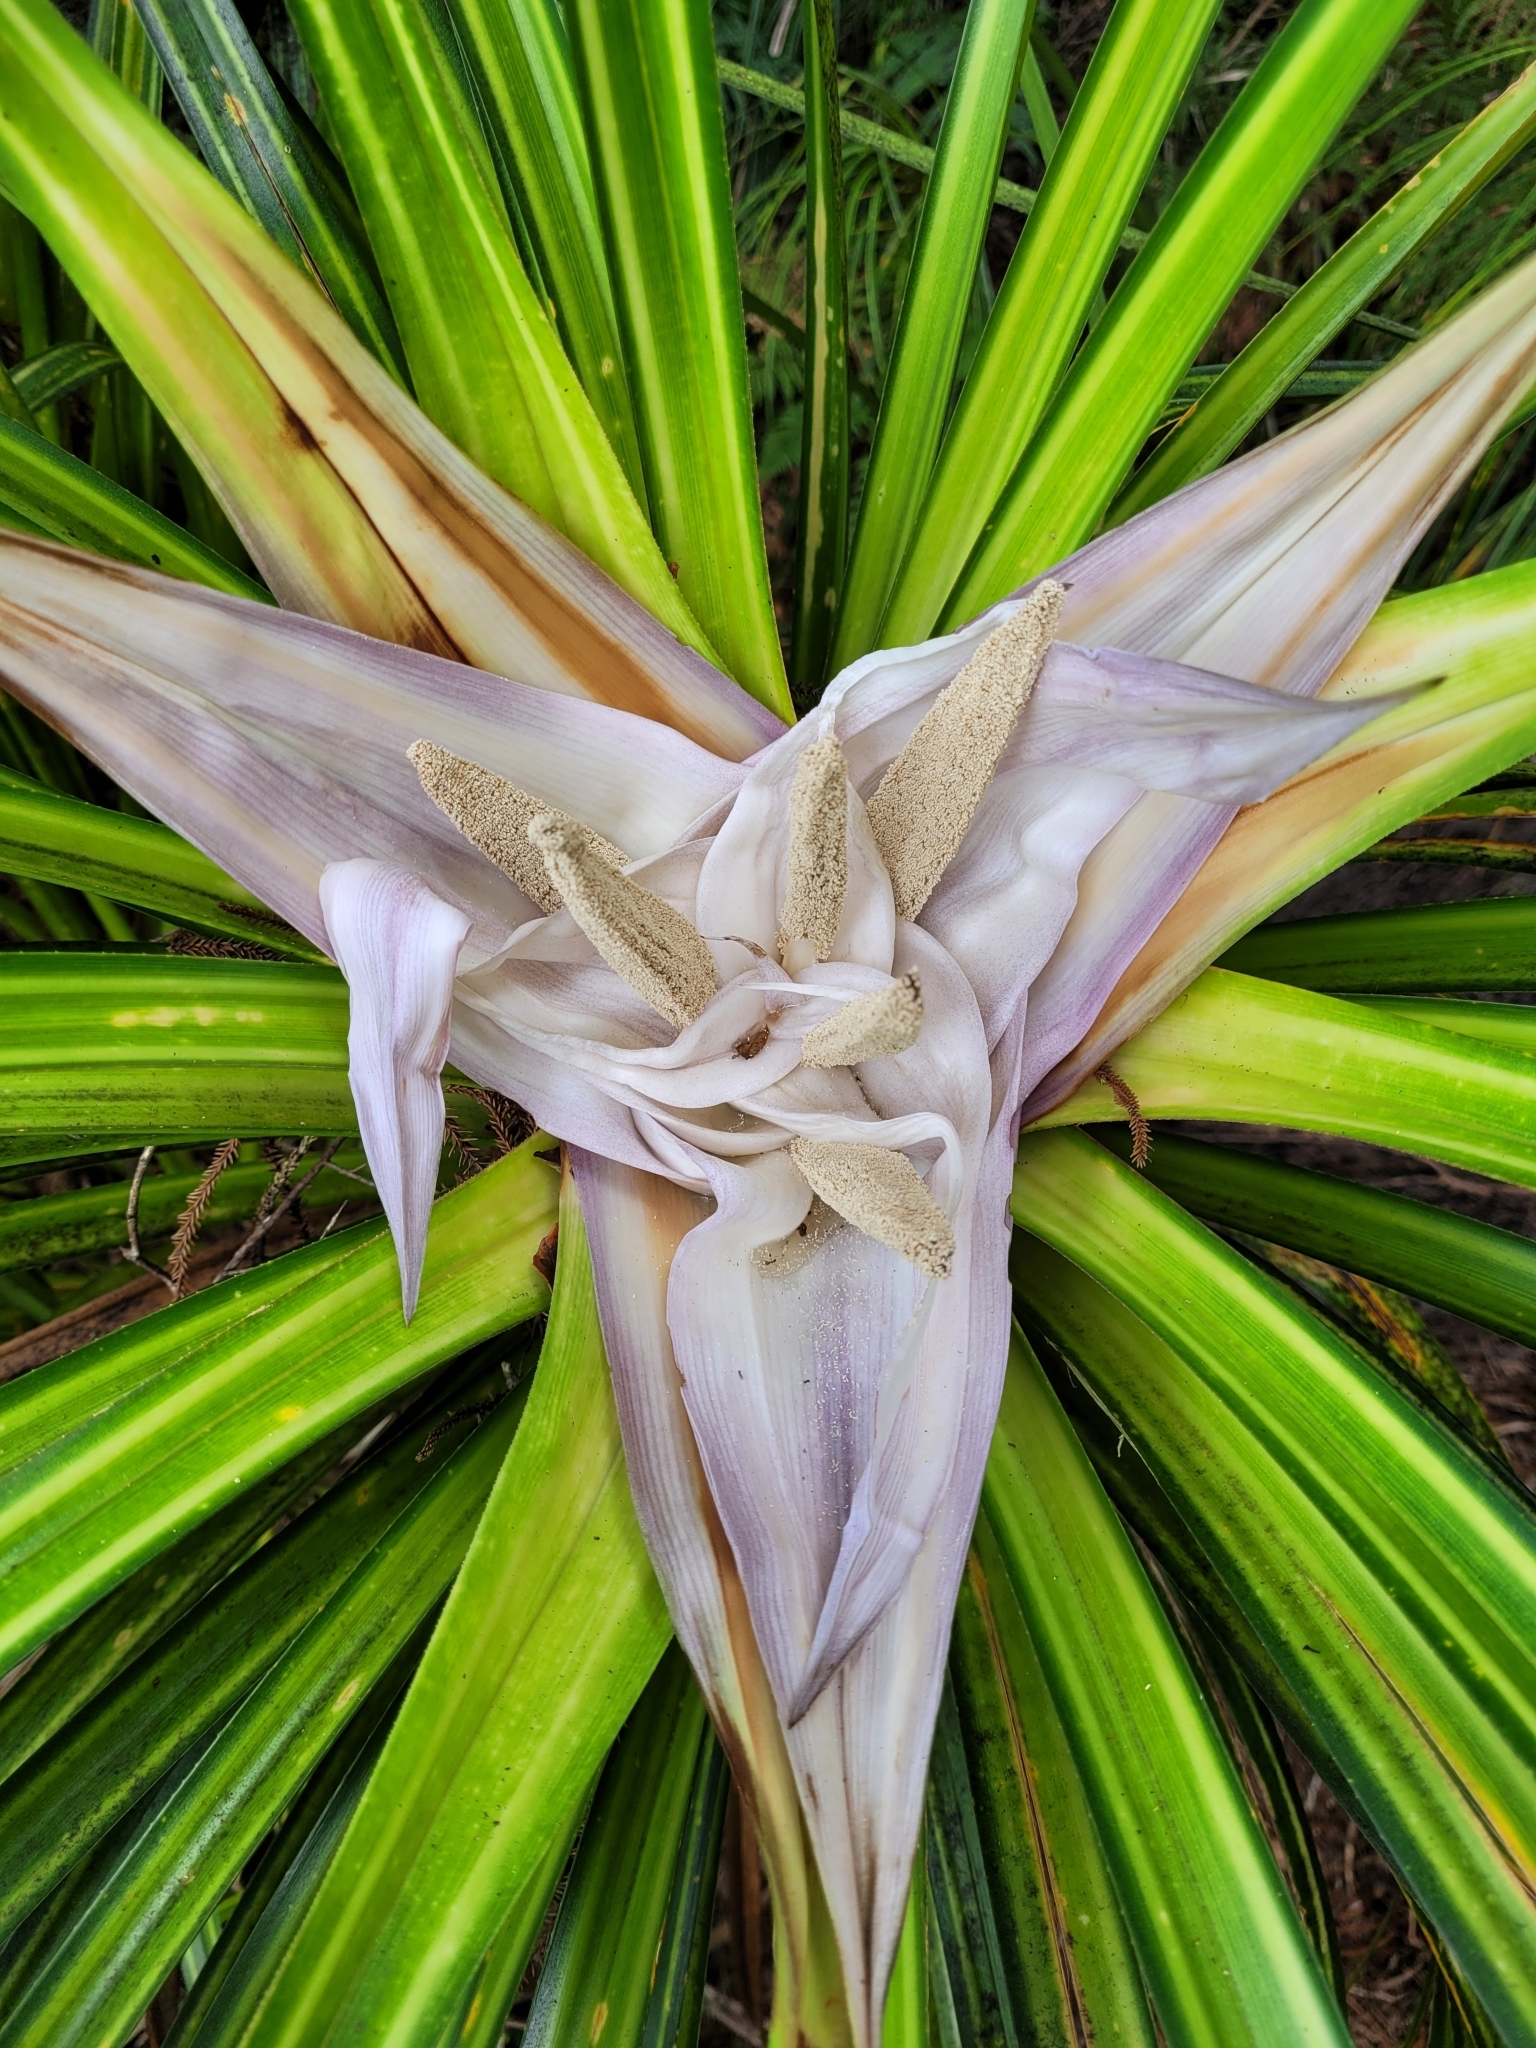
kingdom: Plantae
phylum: Tracheophyta
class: Liliopsida
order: Pandanales
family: Pandanaceae
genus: Freycinetia
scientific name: Freycinetia banksii
